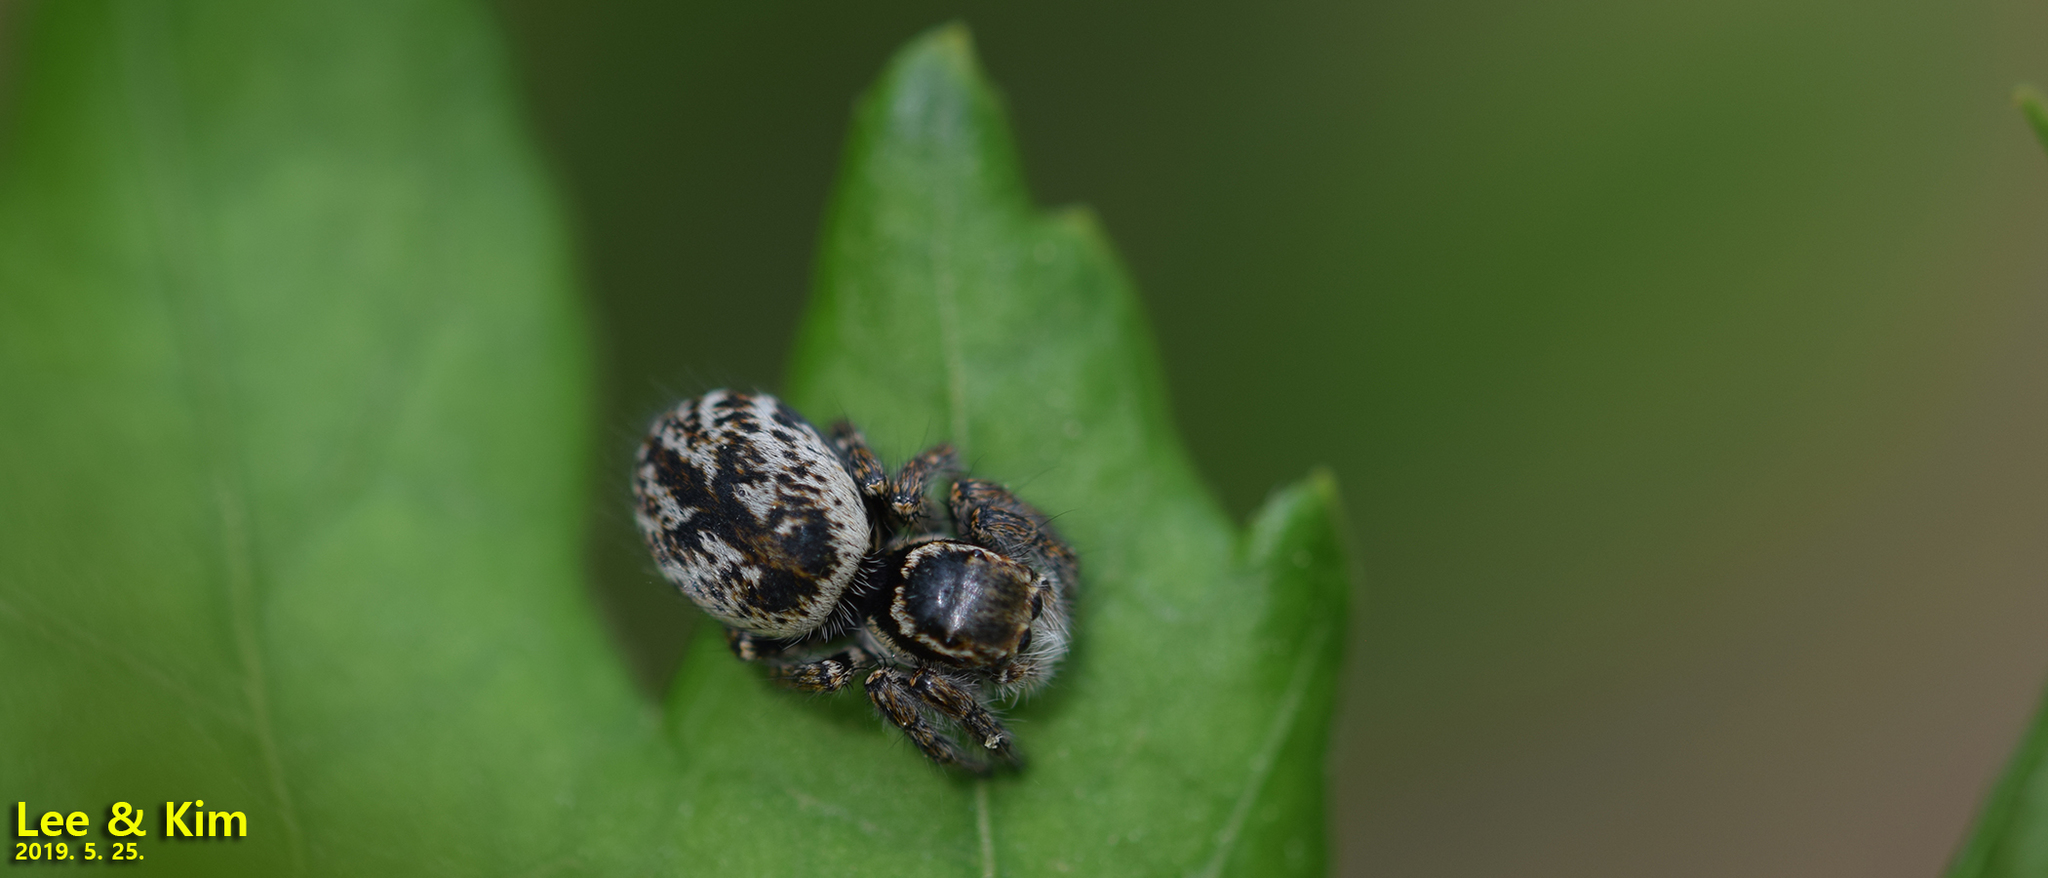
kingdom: Animalia
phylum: Arthropoda
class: Arachnida
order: Araneae
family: Salticidae
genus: Carrhotus
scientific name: Carrhotus xanthogramma
